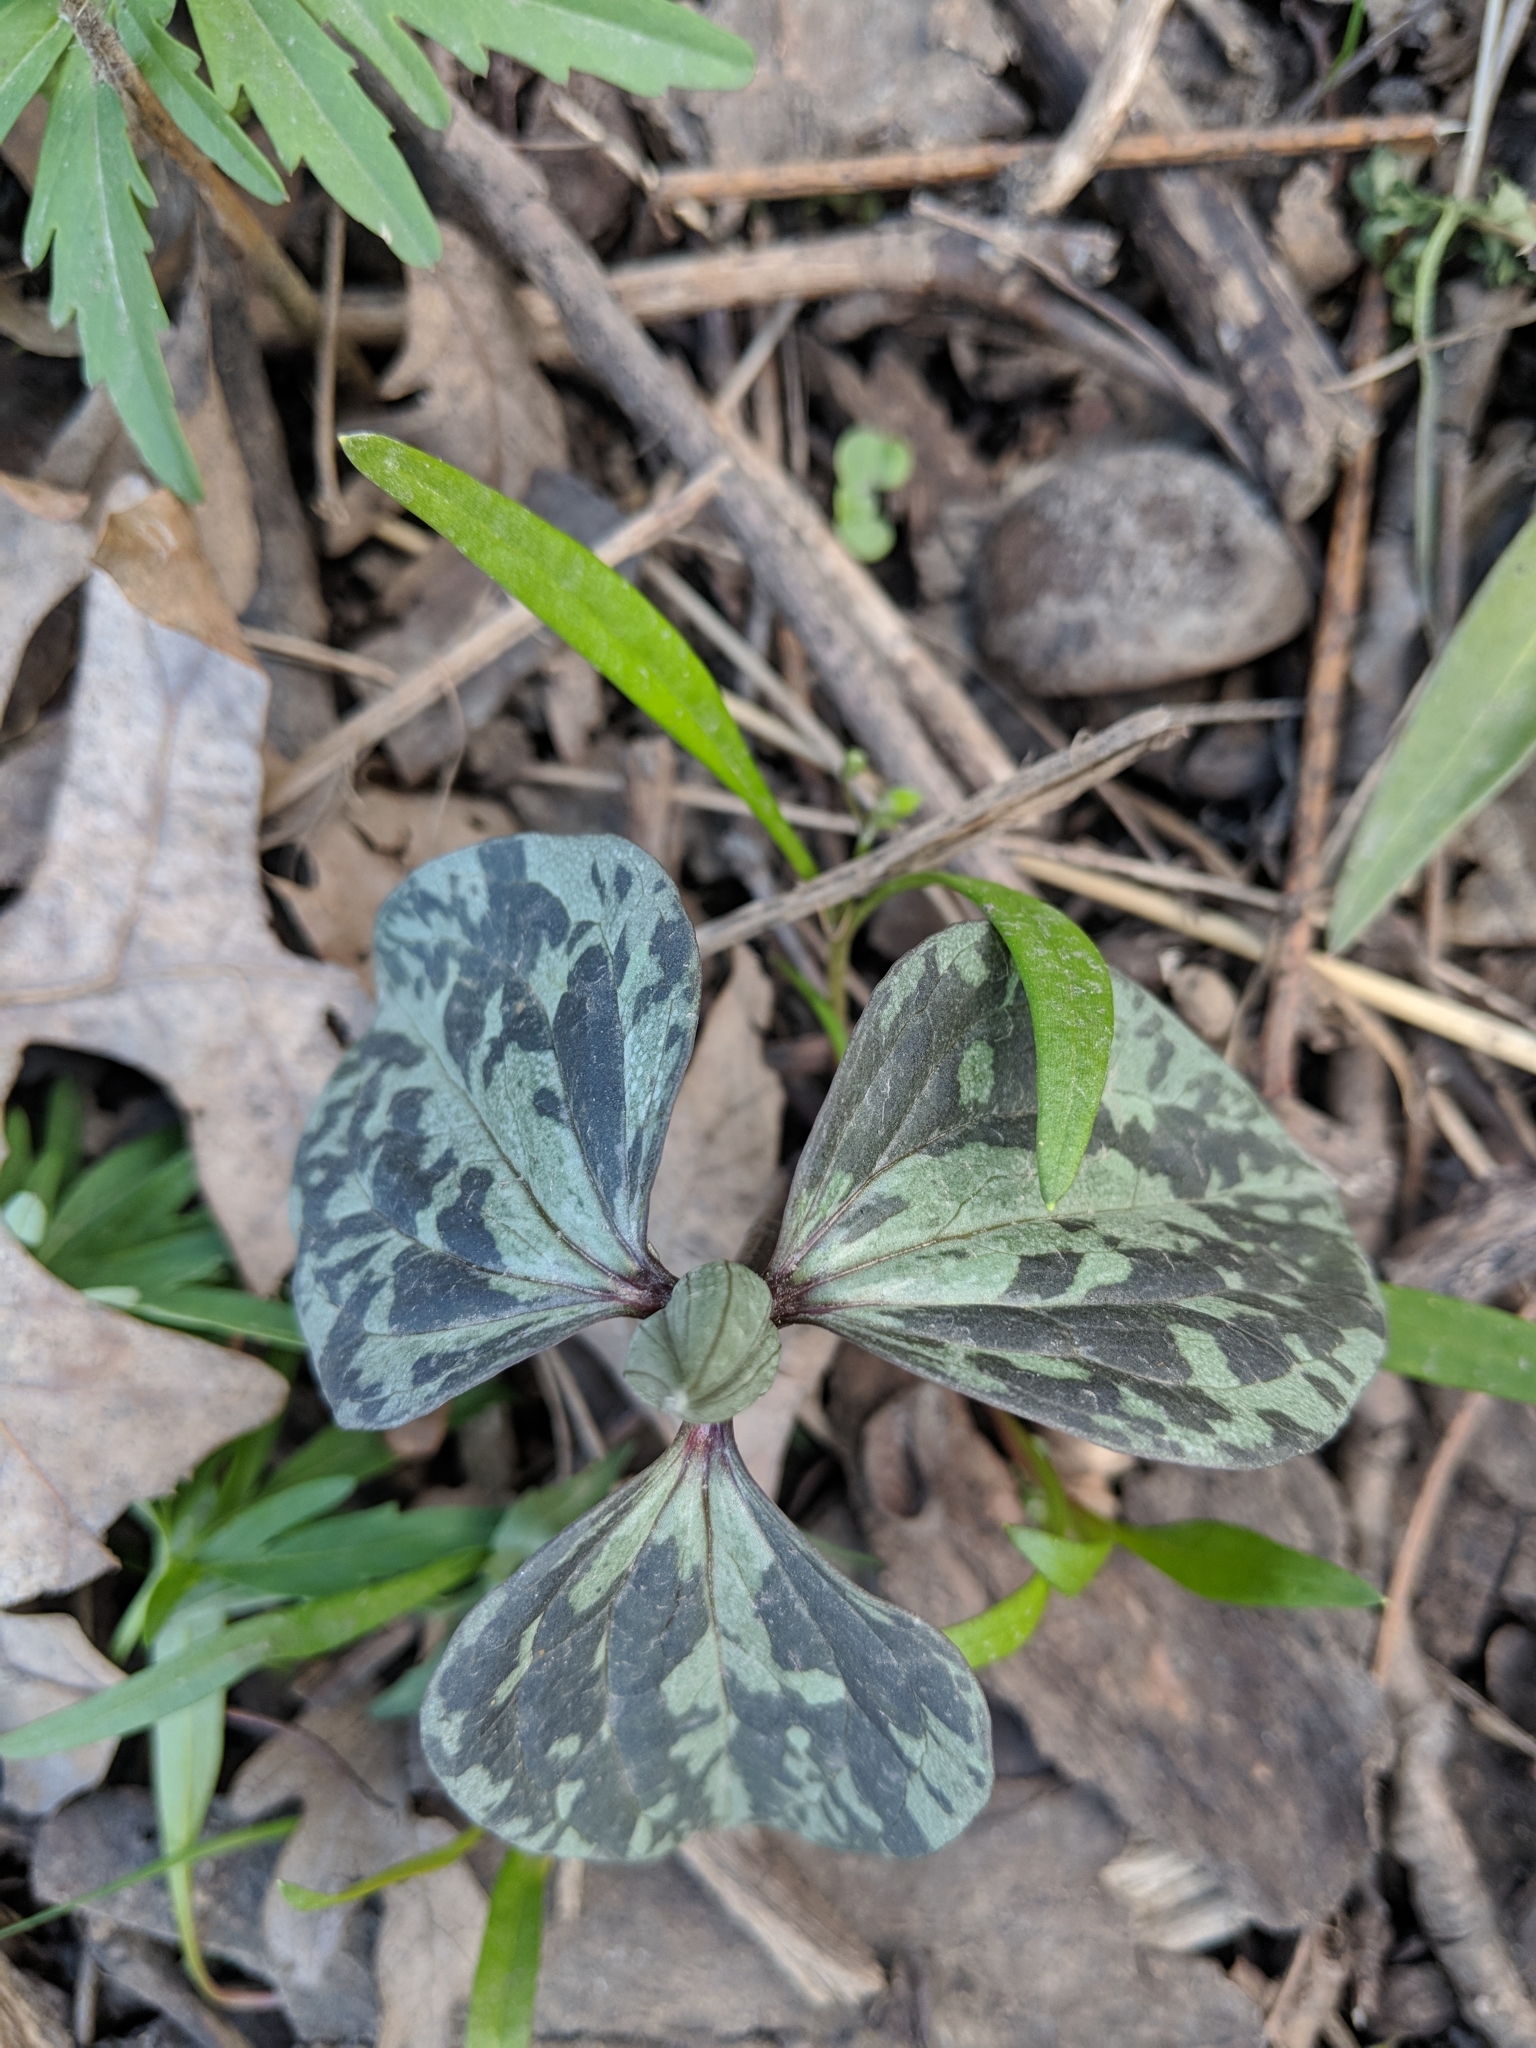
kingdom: Plantae
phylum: Tracheophyta
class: Liliopsida
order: Liliales
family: Melanthiaceae
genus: Trillium
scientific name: Trillium recurvatum
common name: Bloody butcher
